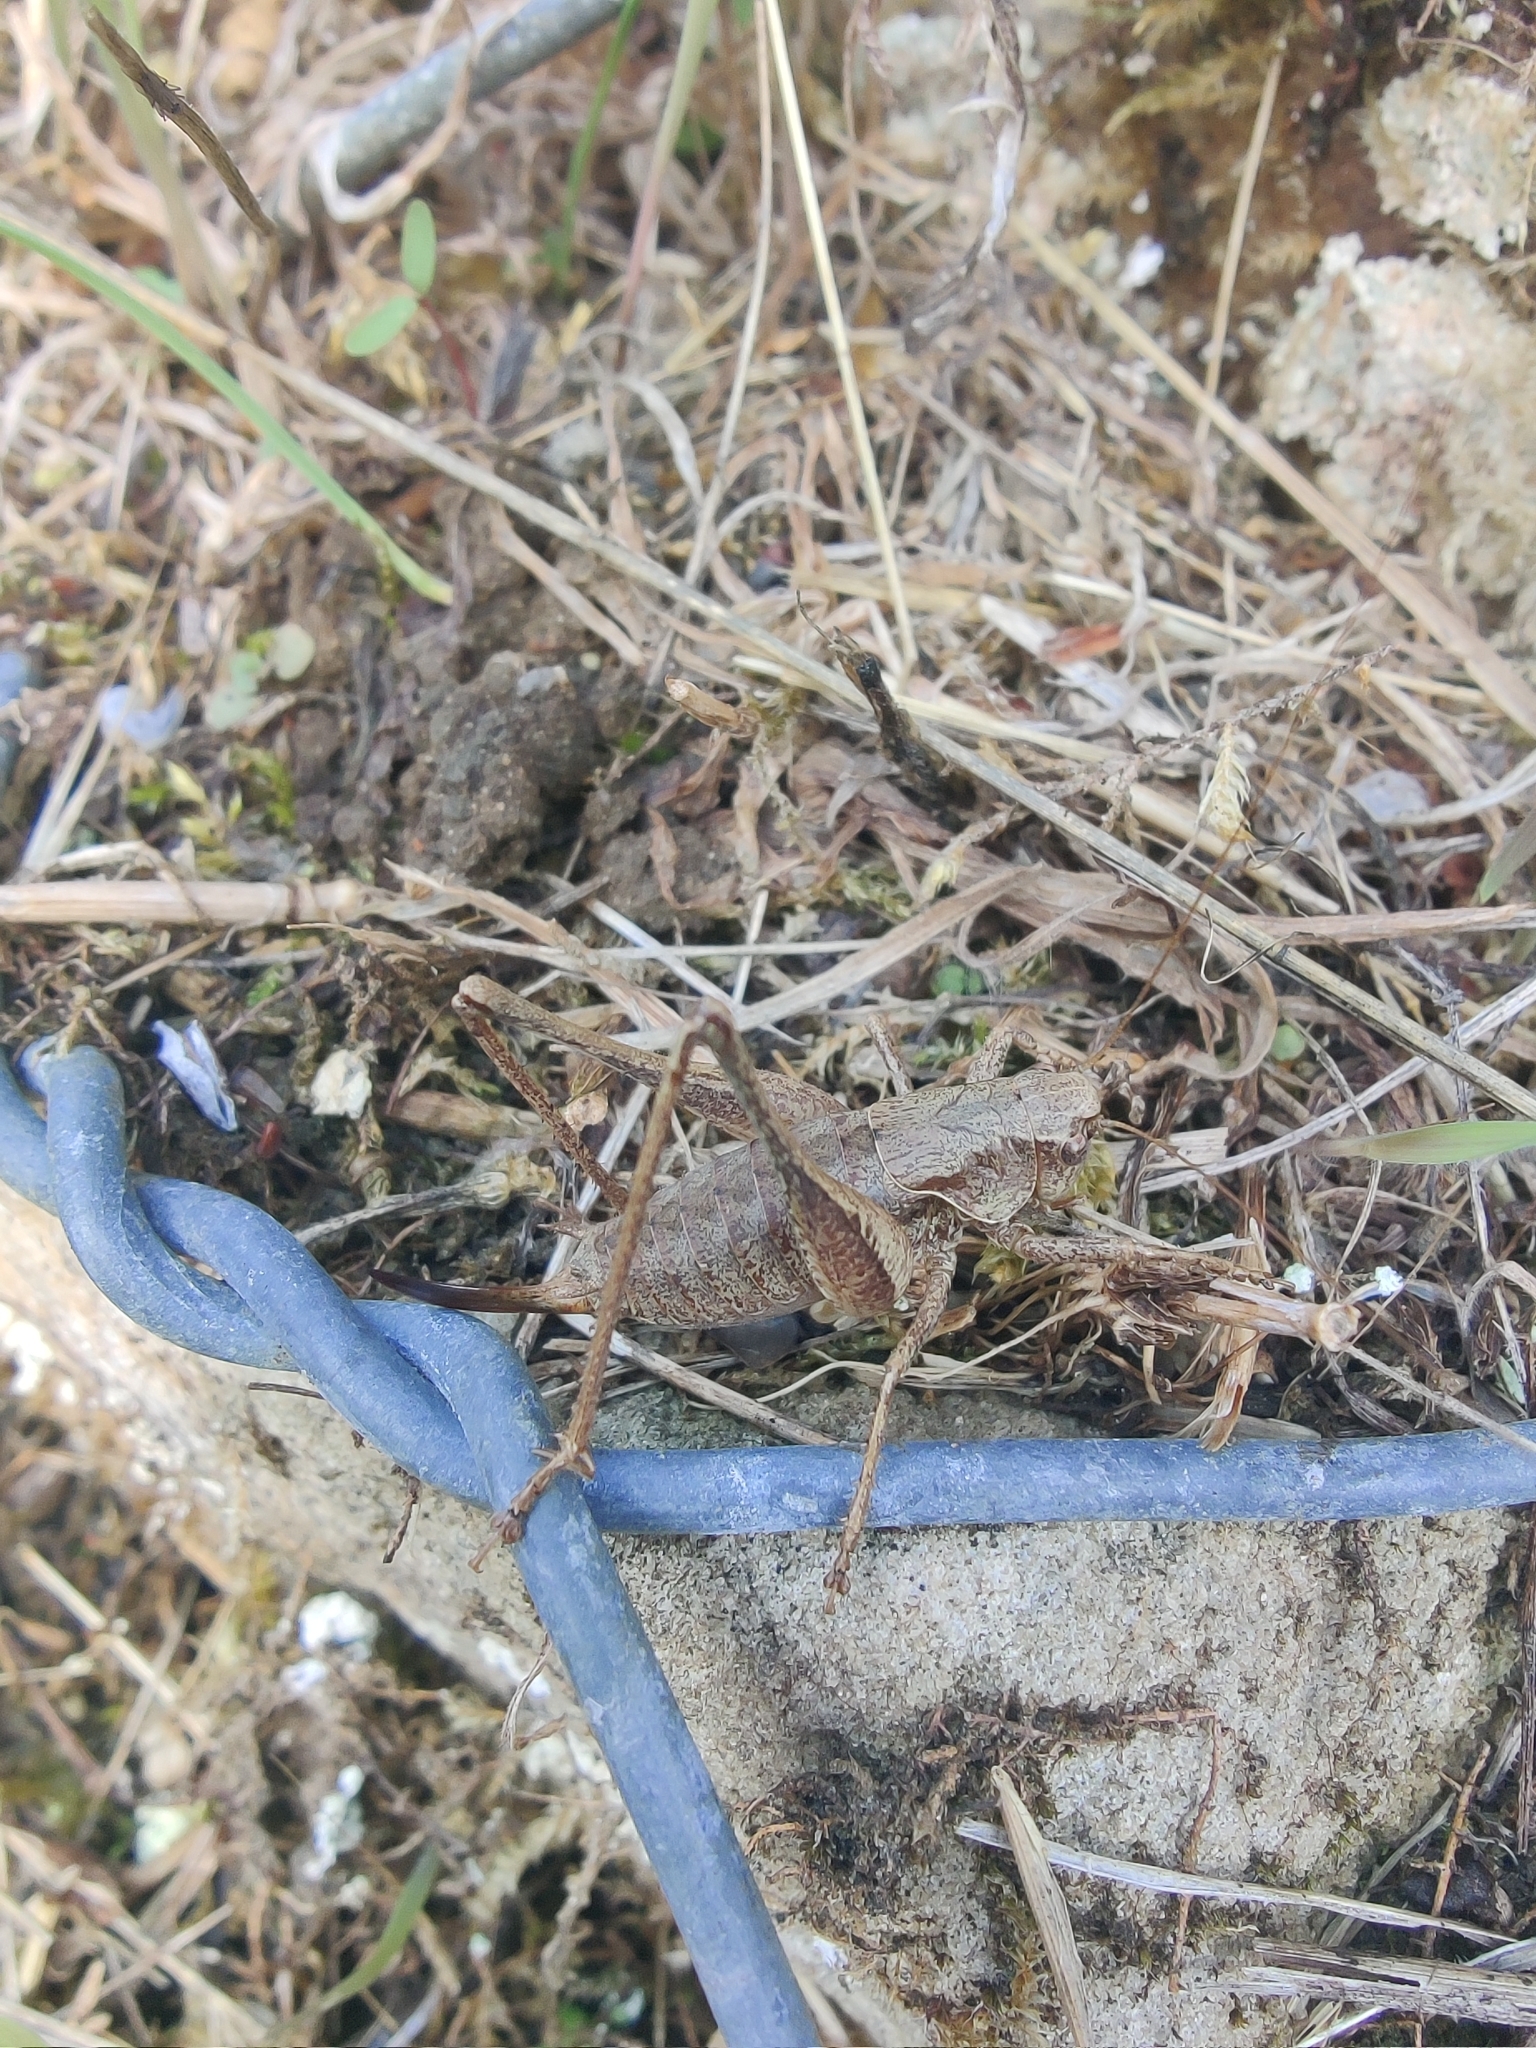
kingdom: Animalia
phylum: Arthropoda
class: Insecta
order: Orthoptera
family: Tettigoniidae
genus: Pholidoptera
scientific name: Pholidoptera griseoaptera
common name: Dark bush-cricket
